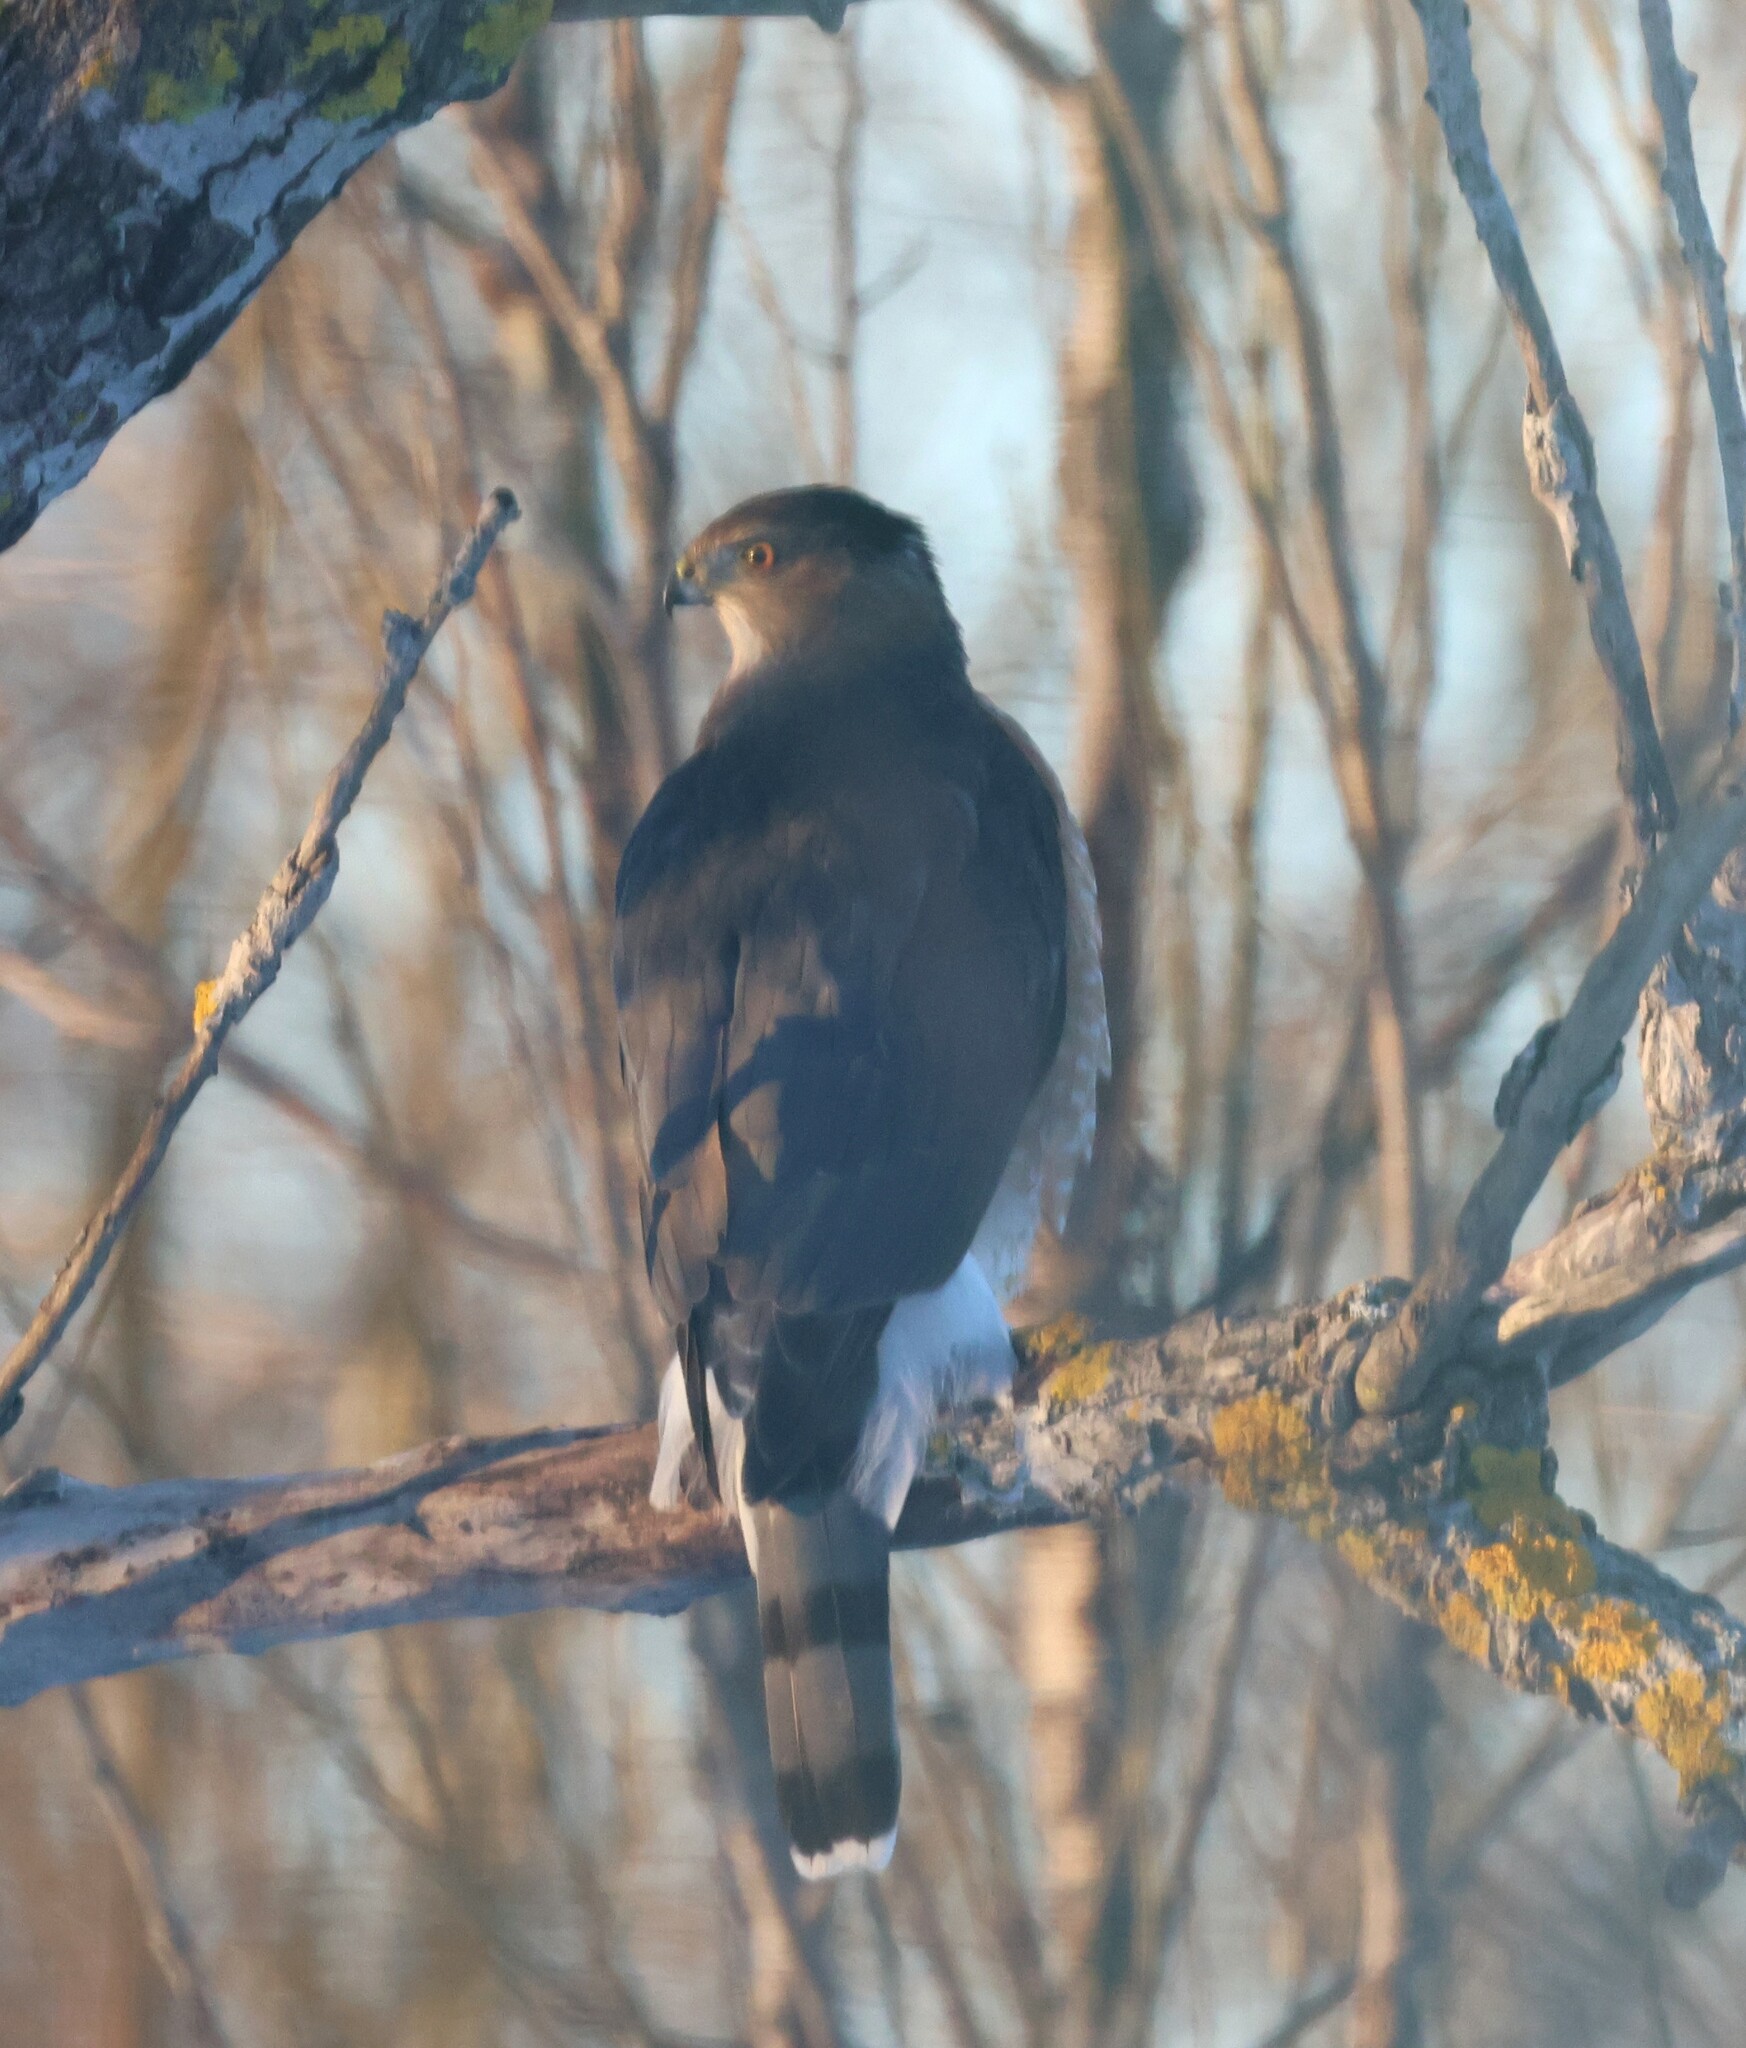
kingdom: Animalia
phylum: Chordata
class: Aves
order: Accipitriformes
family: Accipitridae
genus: Accipiter
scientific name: Accipiter cooperii
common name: Cooper's hawk
